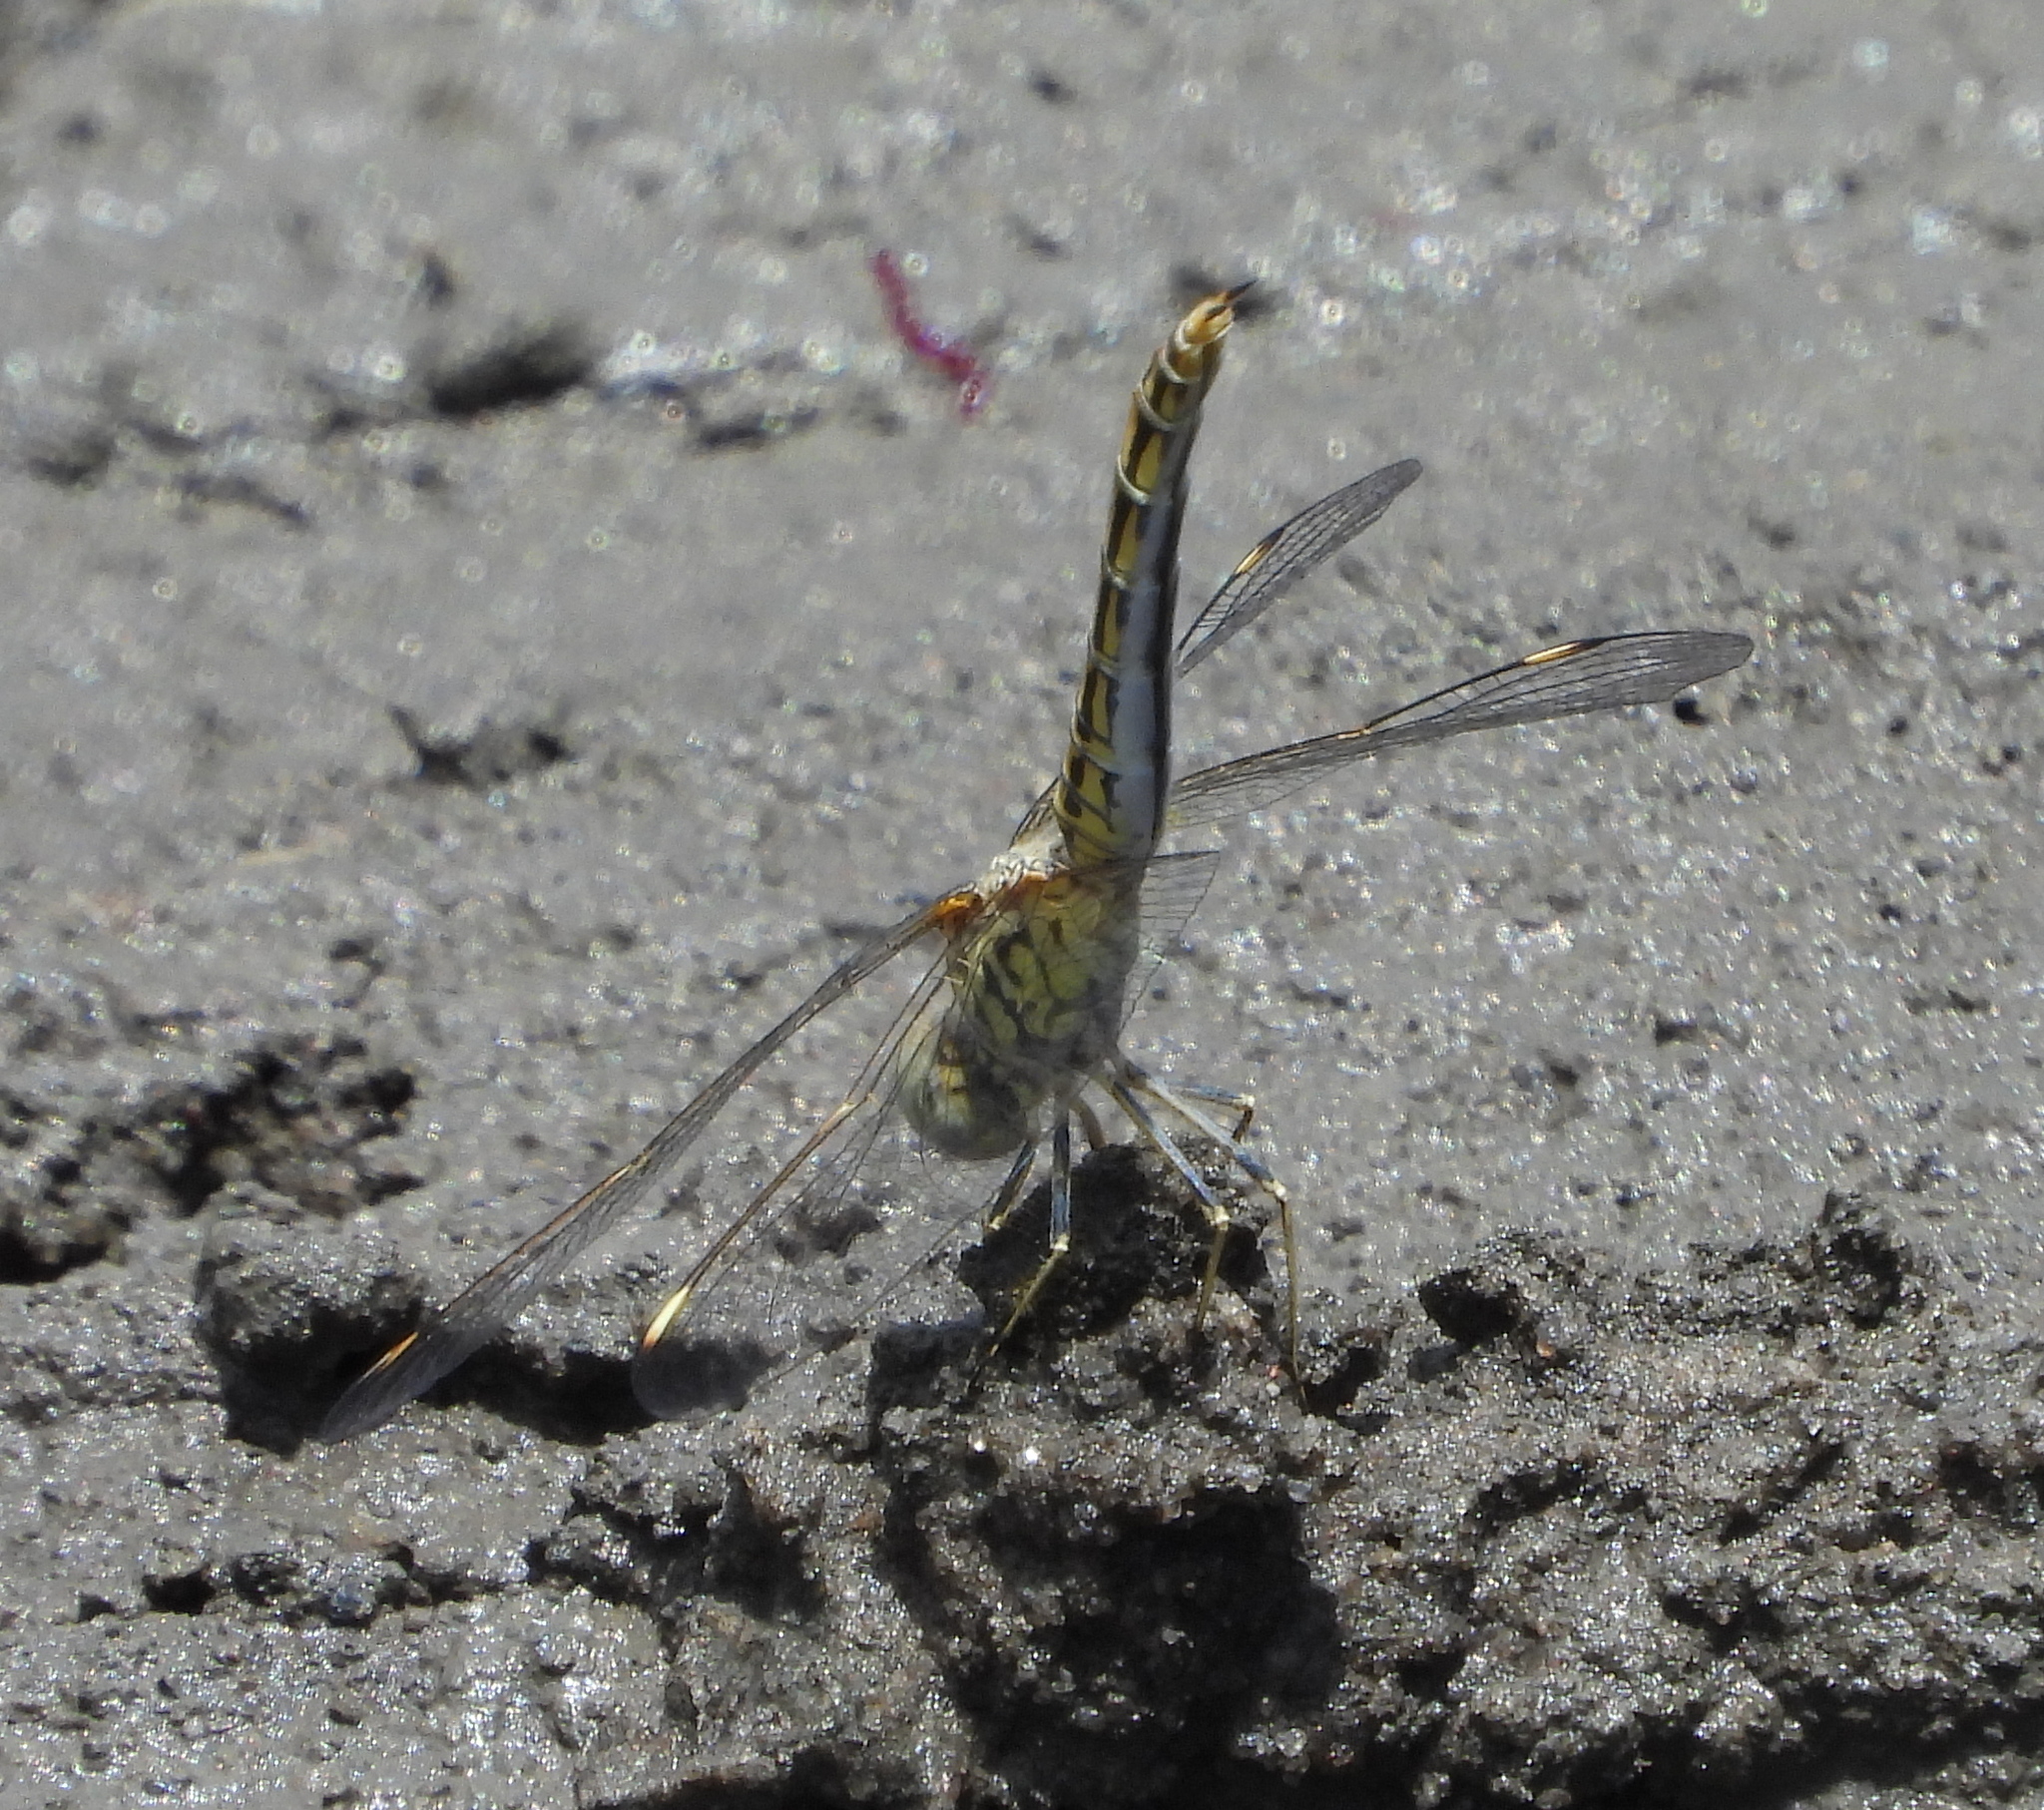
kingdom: Animalia
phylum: Arthropoda
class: Insecta
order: Odonata
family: Libellulidae
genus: Brachythemis
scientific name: Brachythemis leucosticta
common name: Banded groundling
